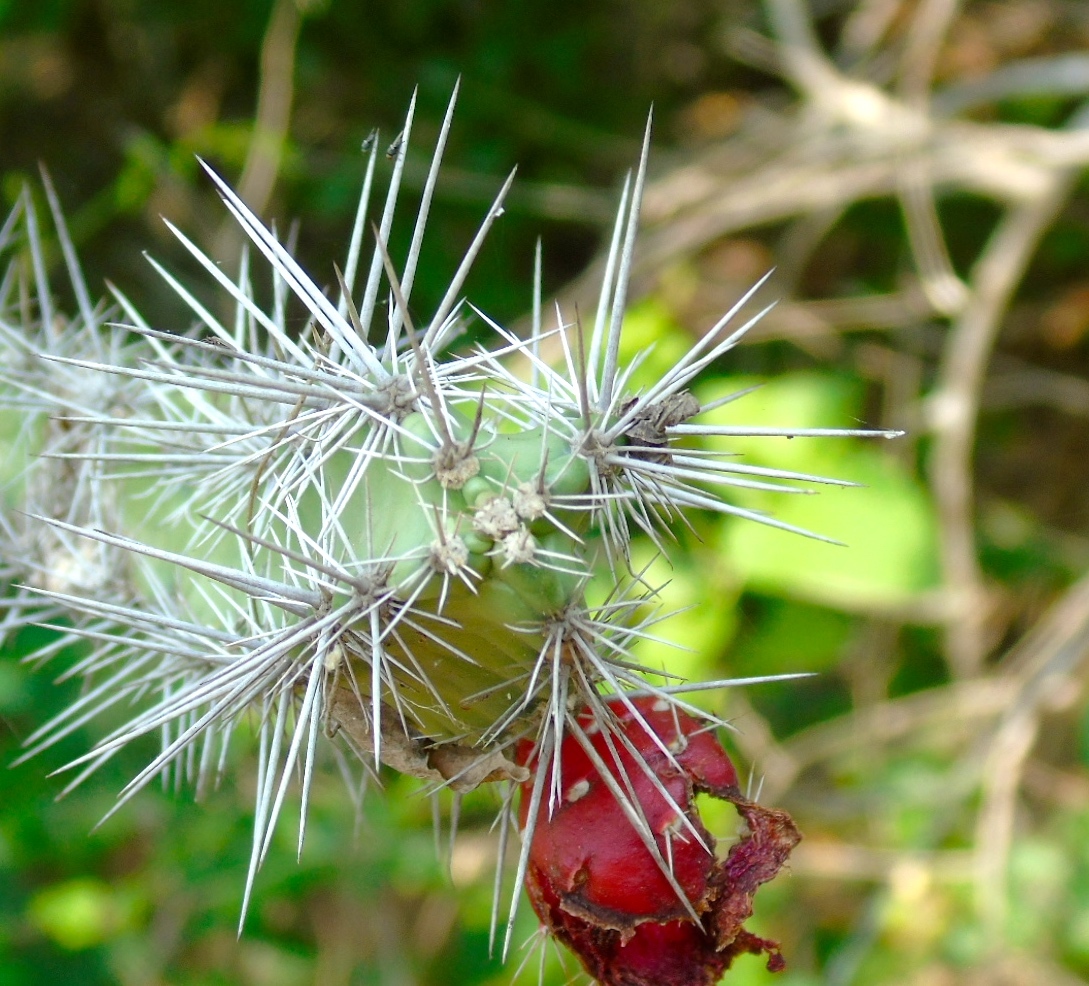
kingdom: Plantae
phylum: Tracheophyta
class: Magnoliopsida
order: Caryophyllales
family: Cactaceae
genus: Stenocereus
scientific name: Stenocereus kerberi
